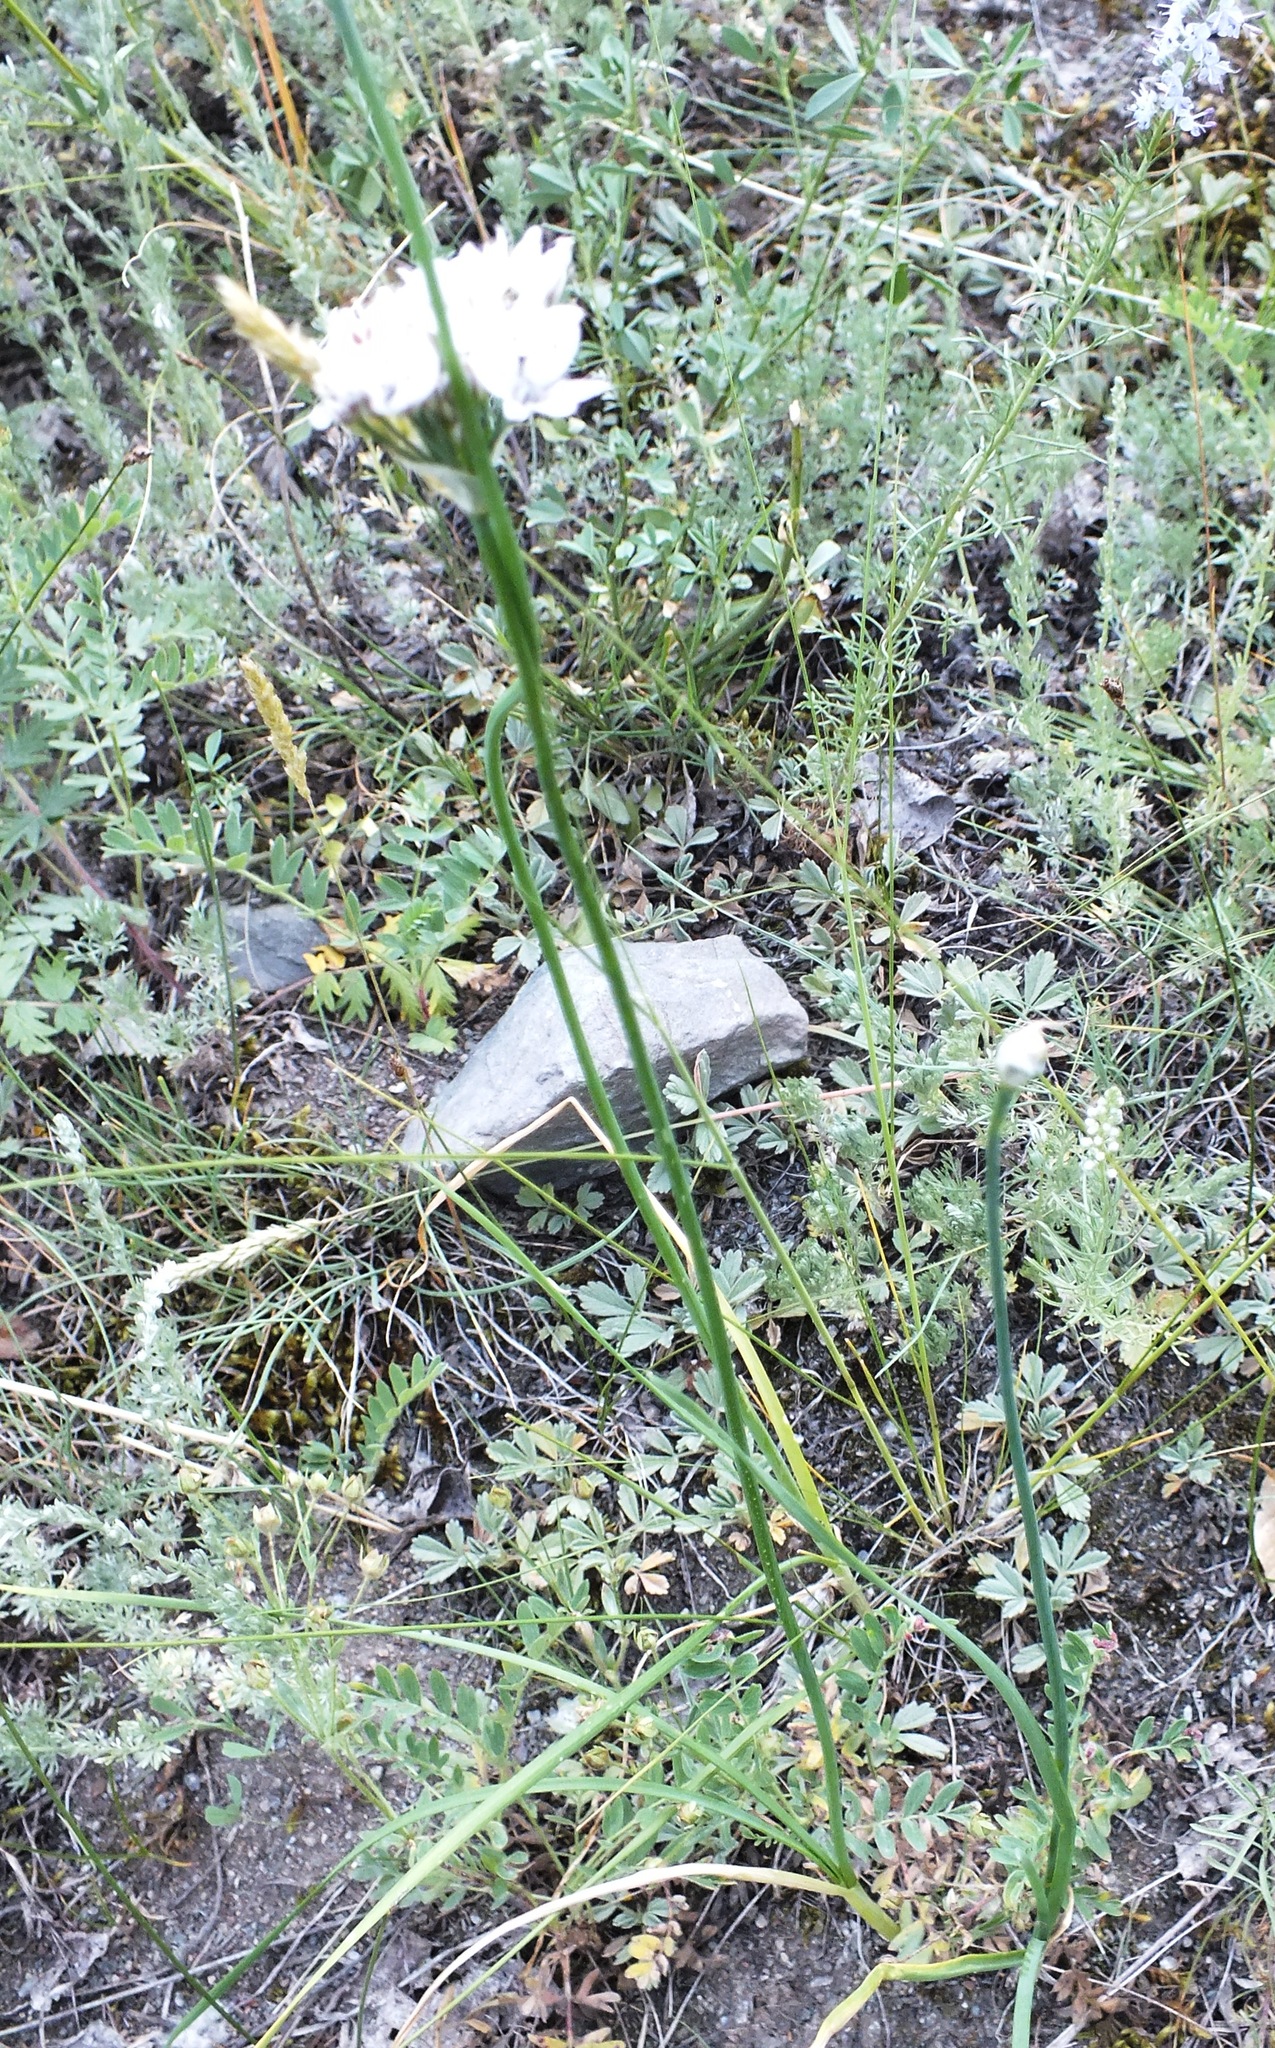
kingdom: Plantae
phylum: Tracheophyta
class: Liliopsida
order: Asparagales
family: Amaryllidaceae
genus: Allium
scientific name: Allium ramosum
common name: Fragrant garlic
